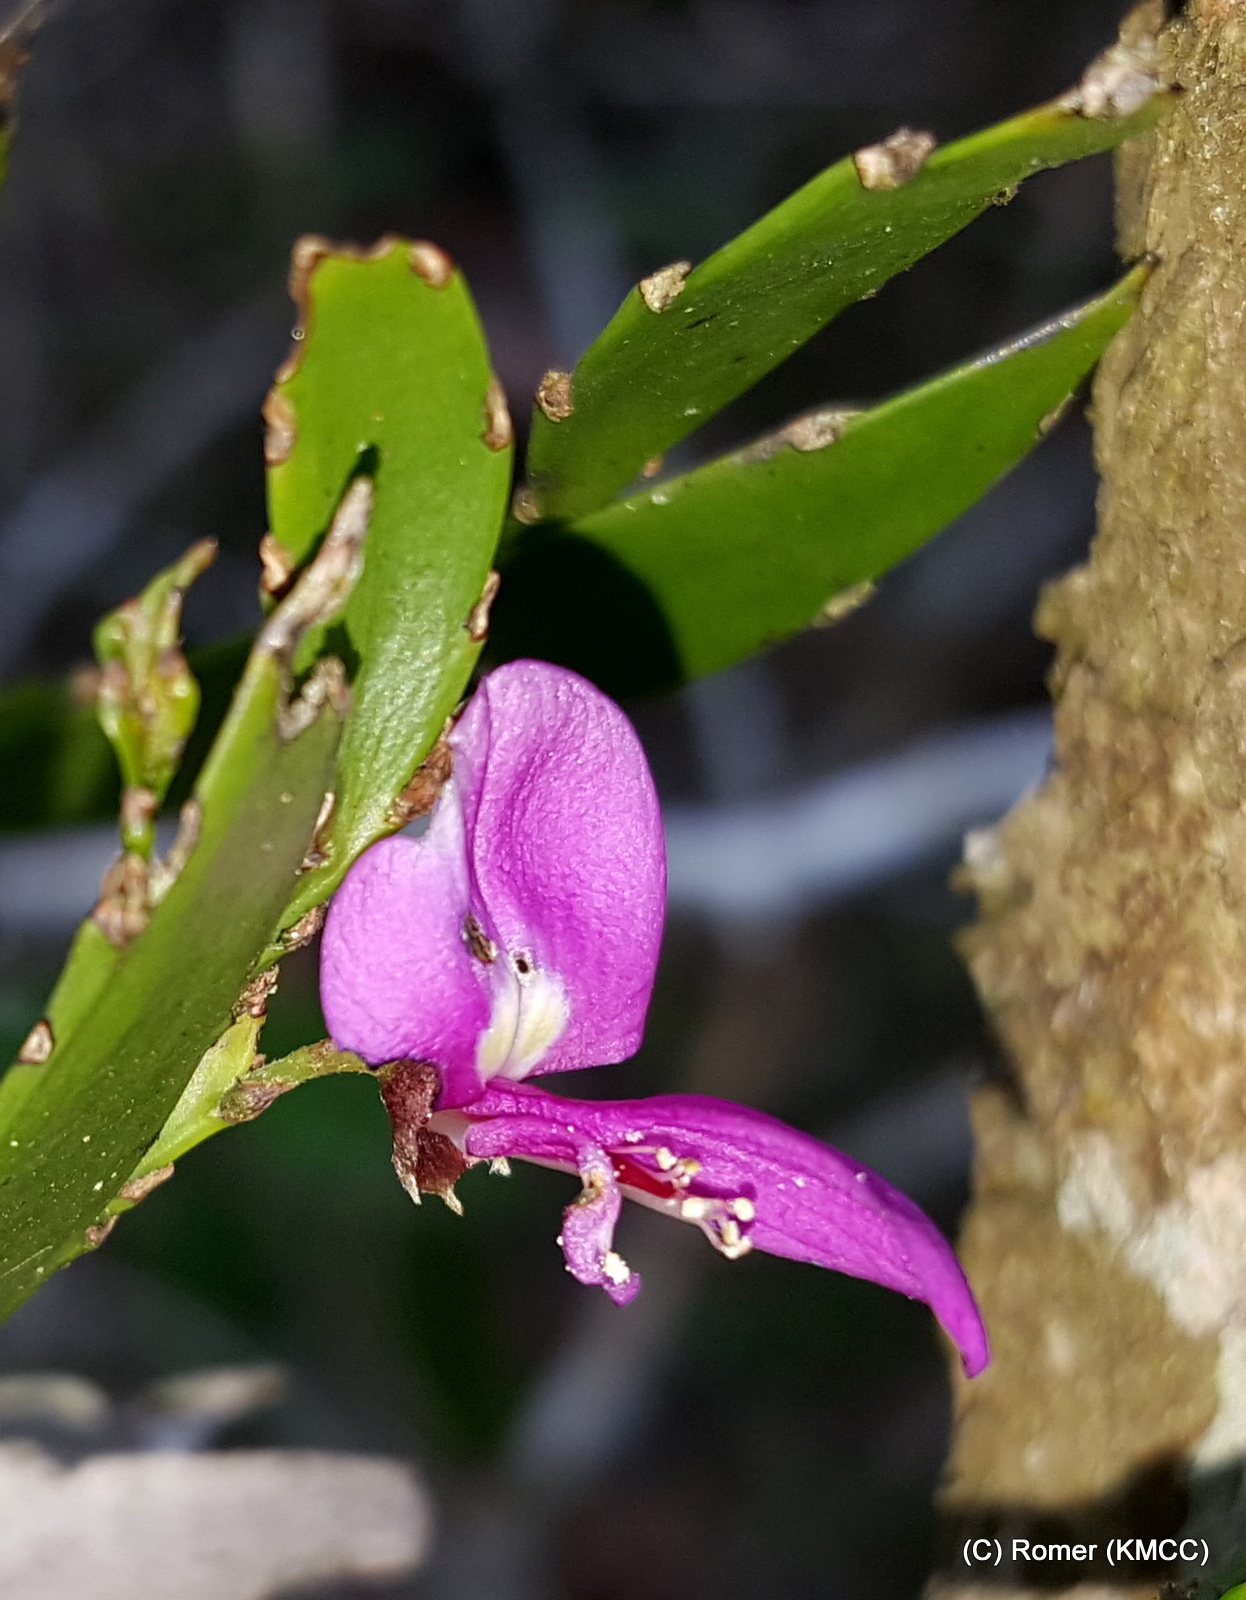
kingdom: Plantae
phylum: Tracheophyta
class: Magnoliopsida
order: Fabales
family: Fabaceae
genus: Phylloxylon
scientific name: Phylloxylon xylophylloides
